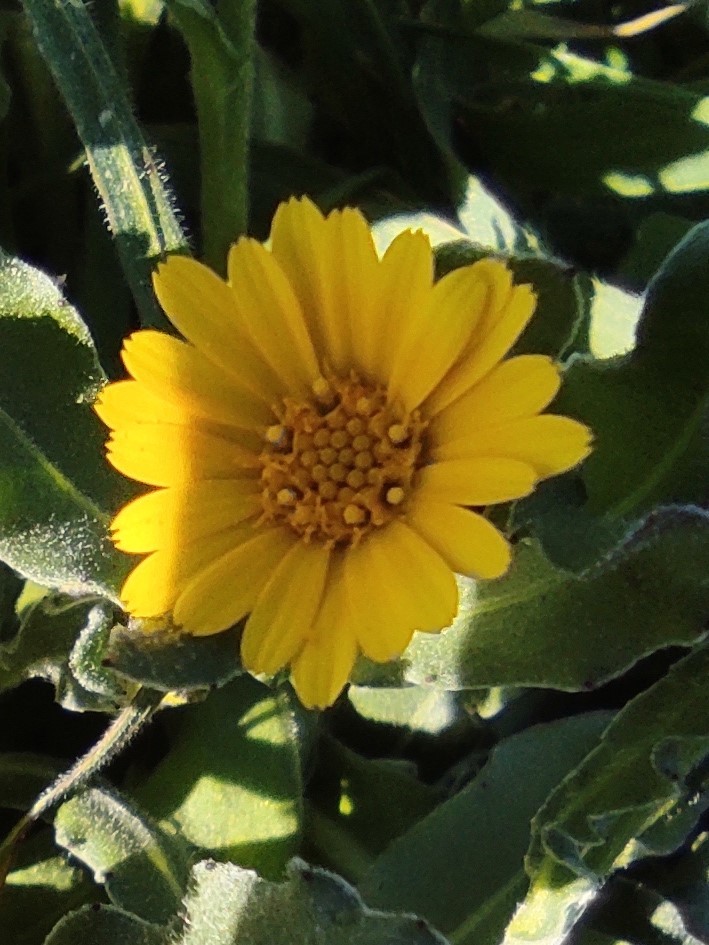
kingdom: Plantae
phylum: Tracheophyta
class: Magnoliopsida
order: Asterales
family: Asteraceae
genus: Calendula
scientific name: Calendula arvensis
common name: Field marigold
